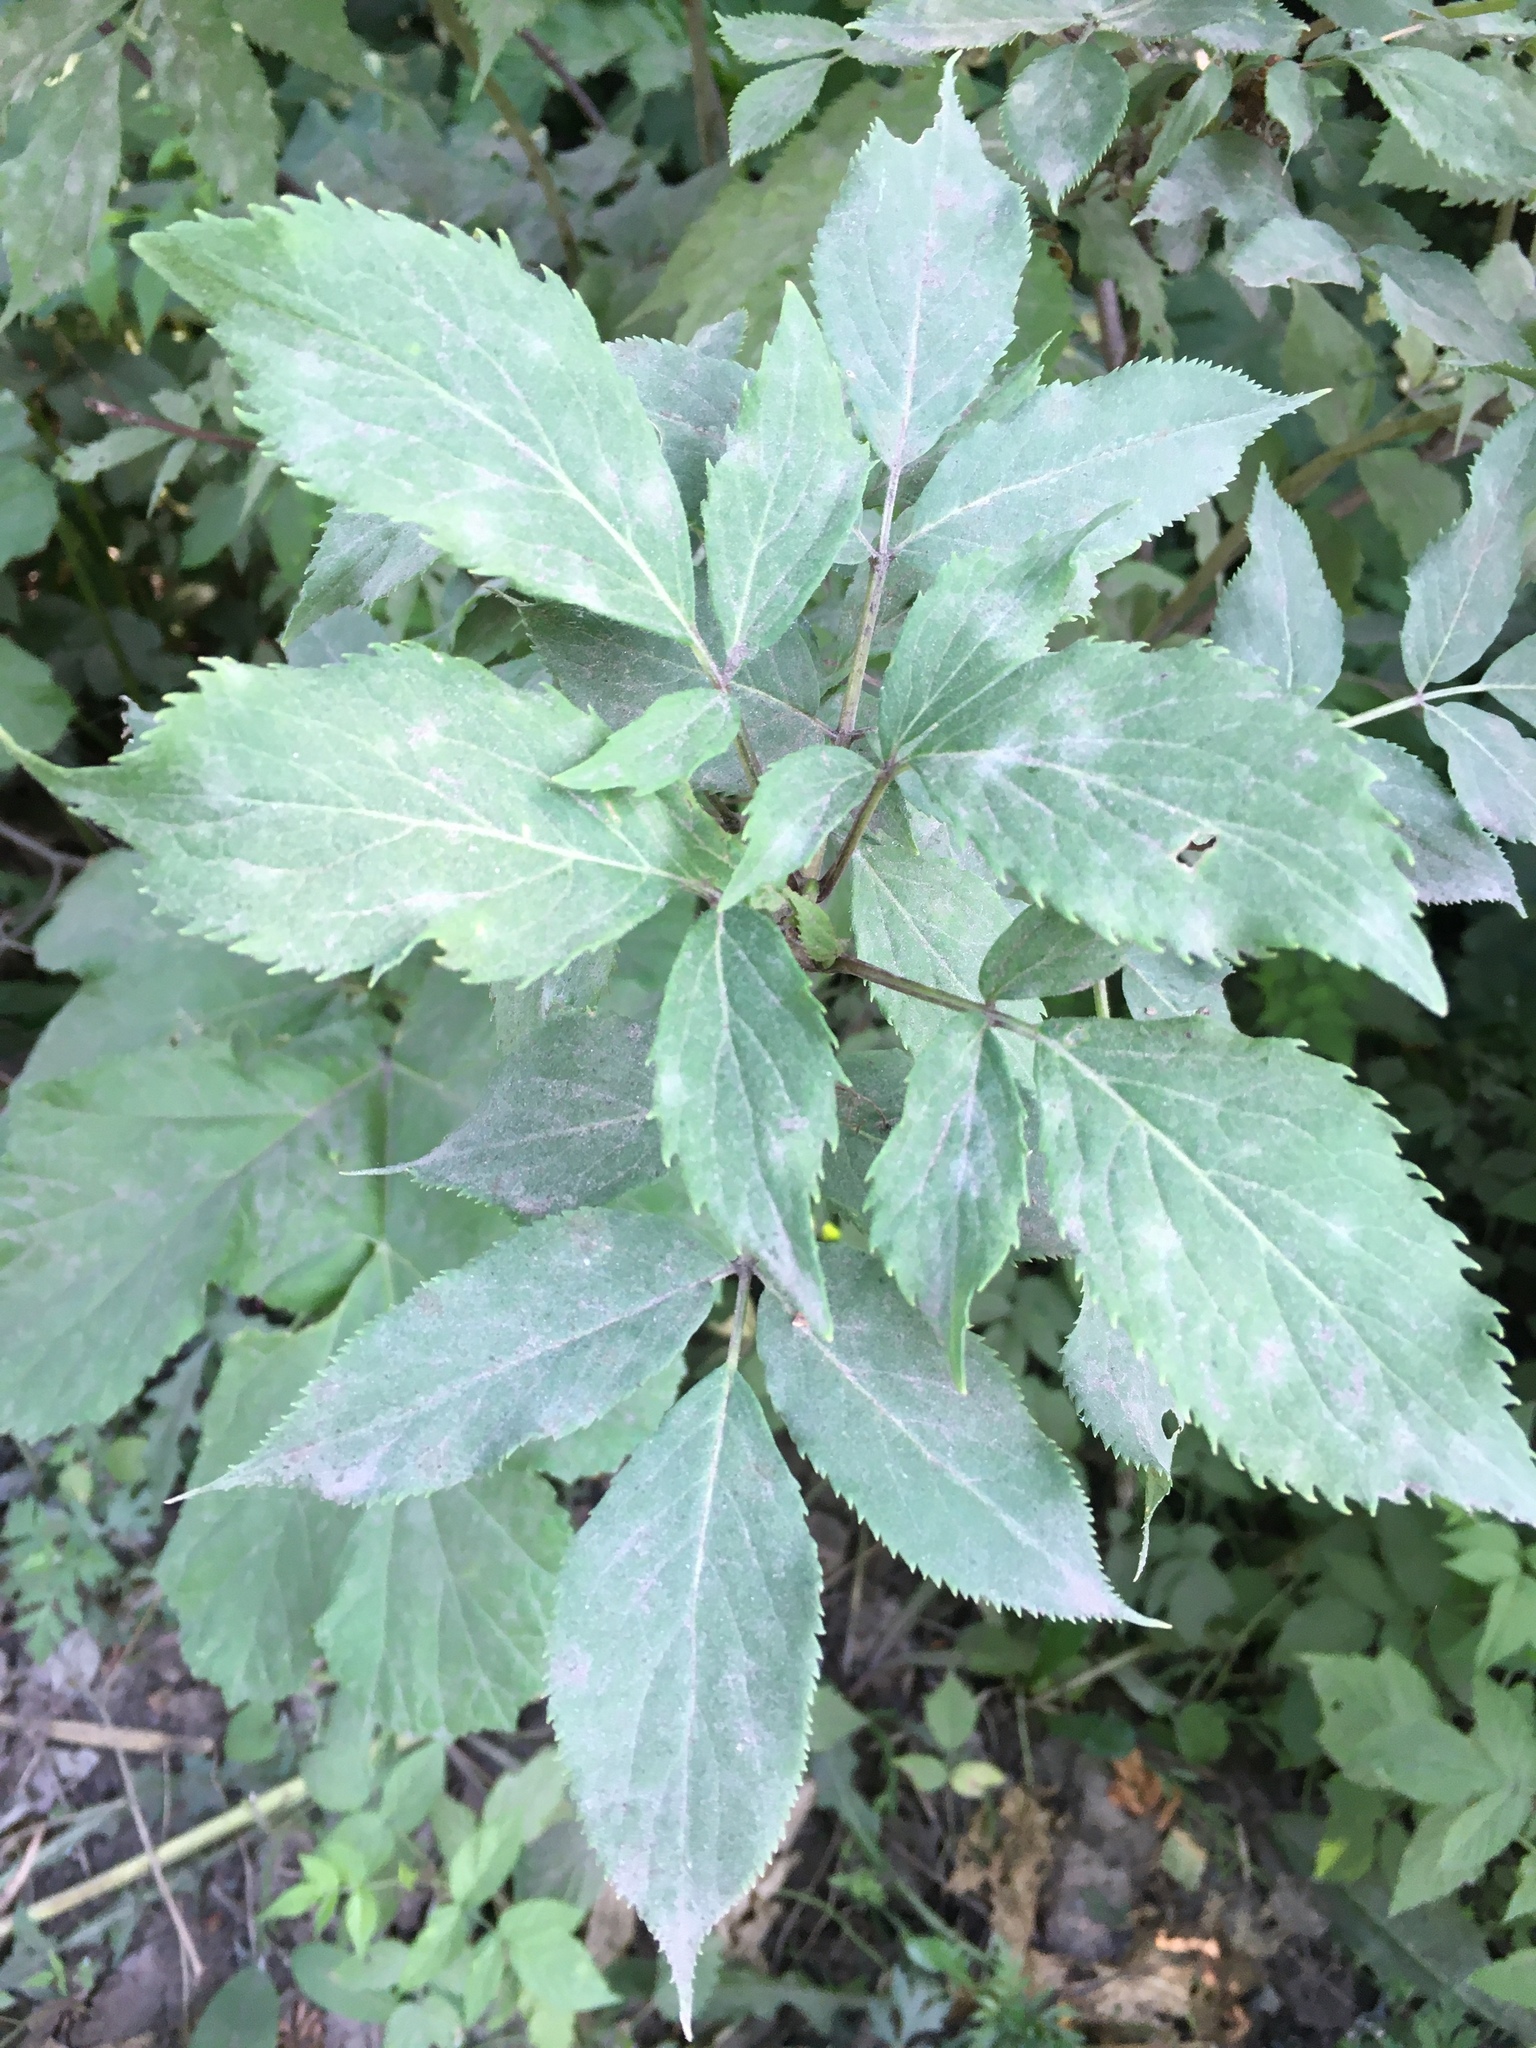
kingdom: Plantae
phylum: Tracheophyta
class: Magnoliopsida
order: Dipsacales
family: Viburnaceae
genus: Sambucus
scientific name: Sambucus racemosa
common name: Red-berried elder
